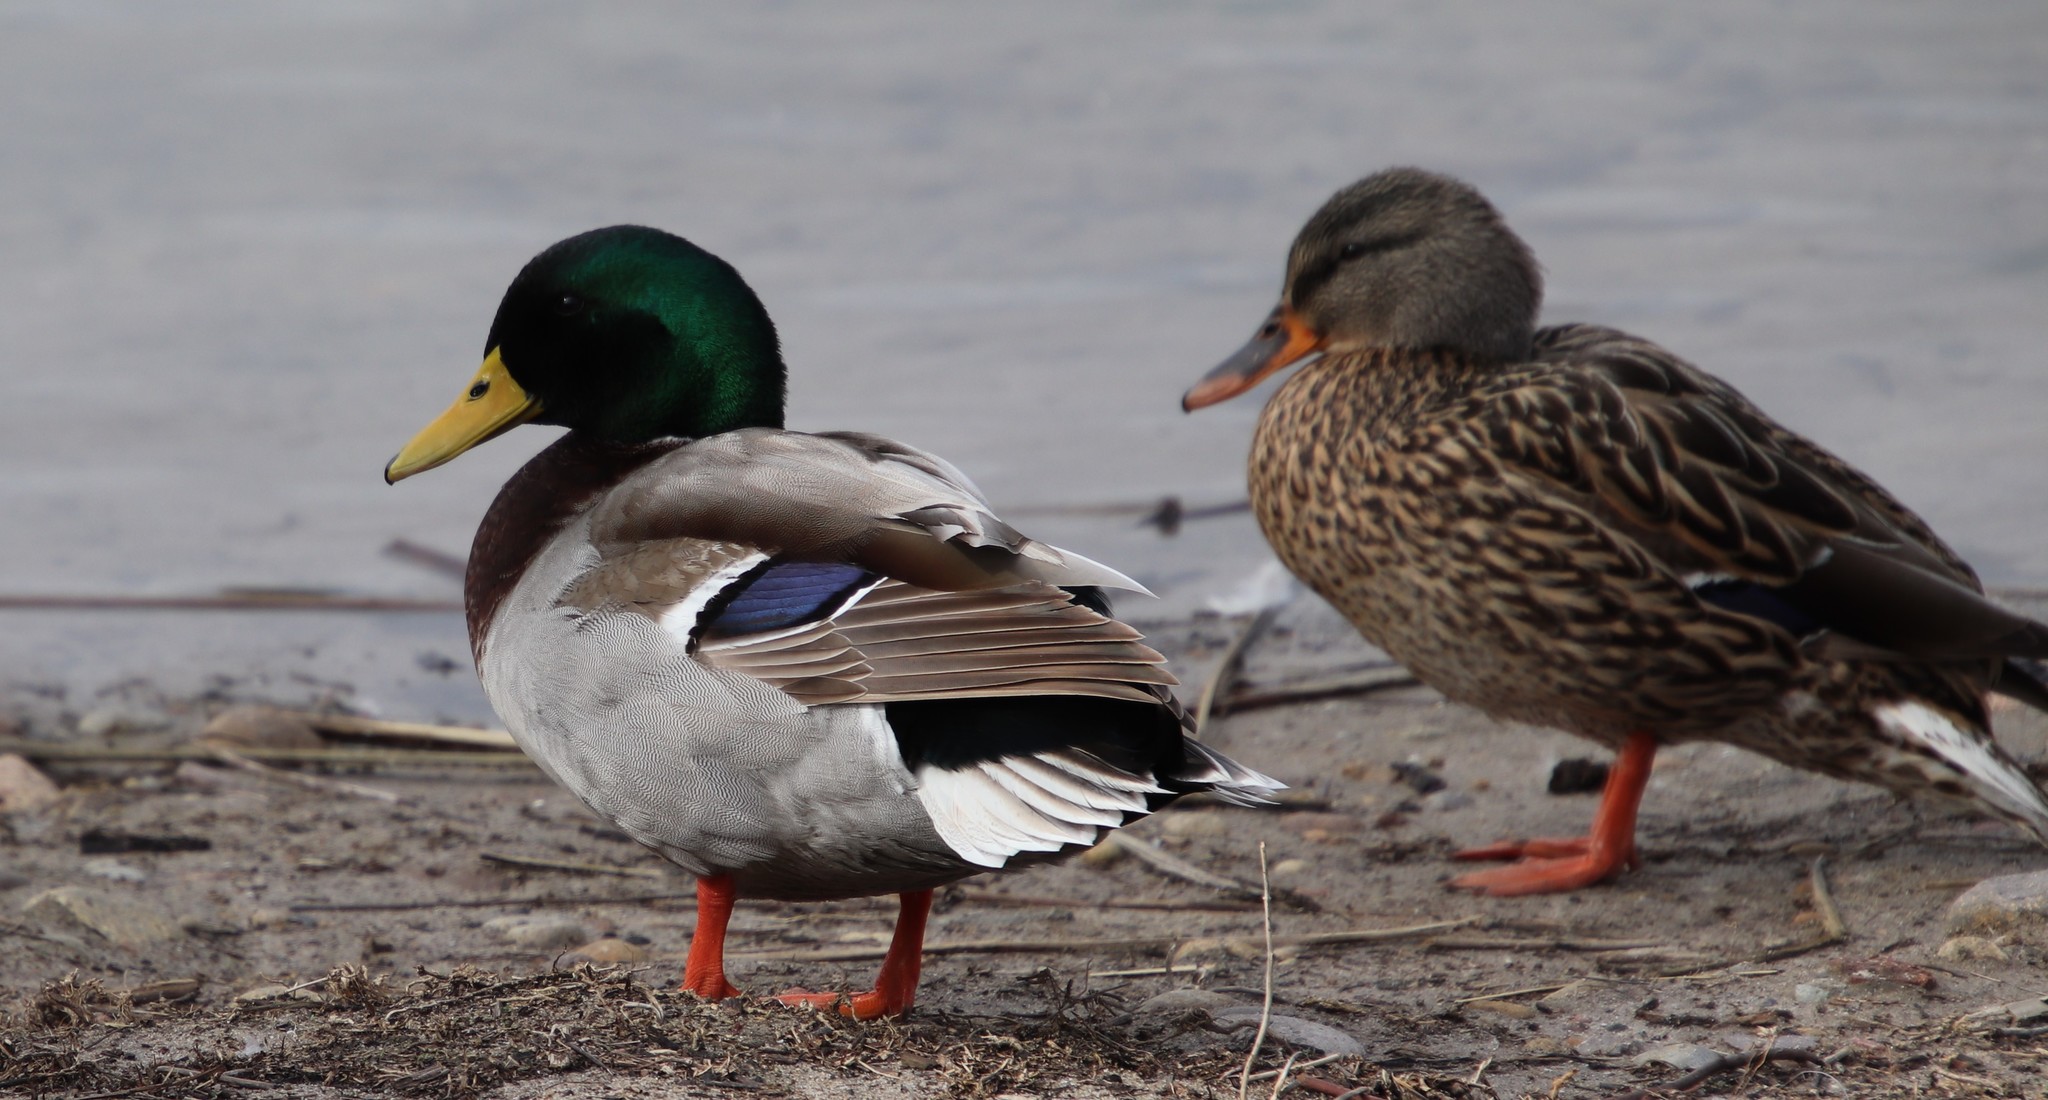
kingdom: Animalia
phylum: Chordata
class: Aves
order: Anseriformes
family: Anatidae
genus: Anas
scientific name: Anas platyrhynchos
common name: Mallard
